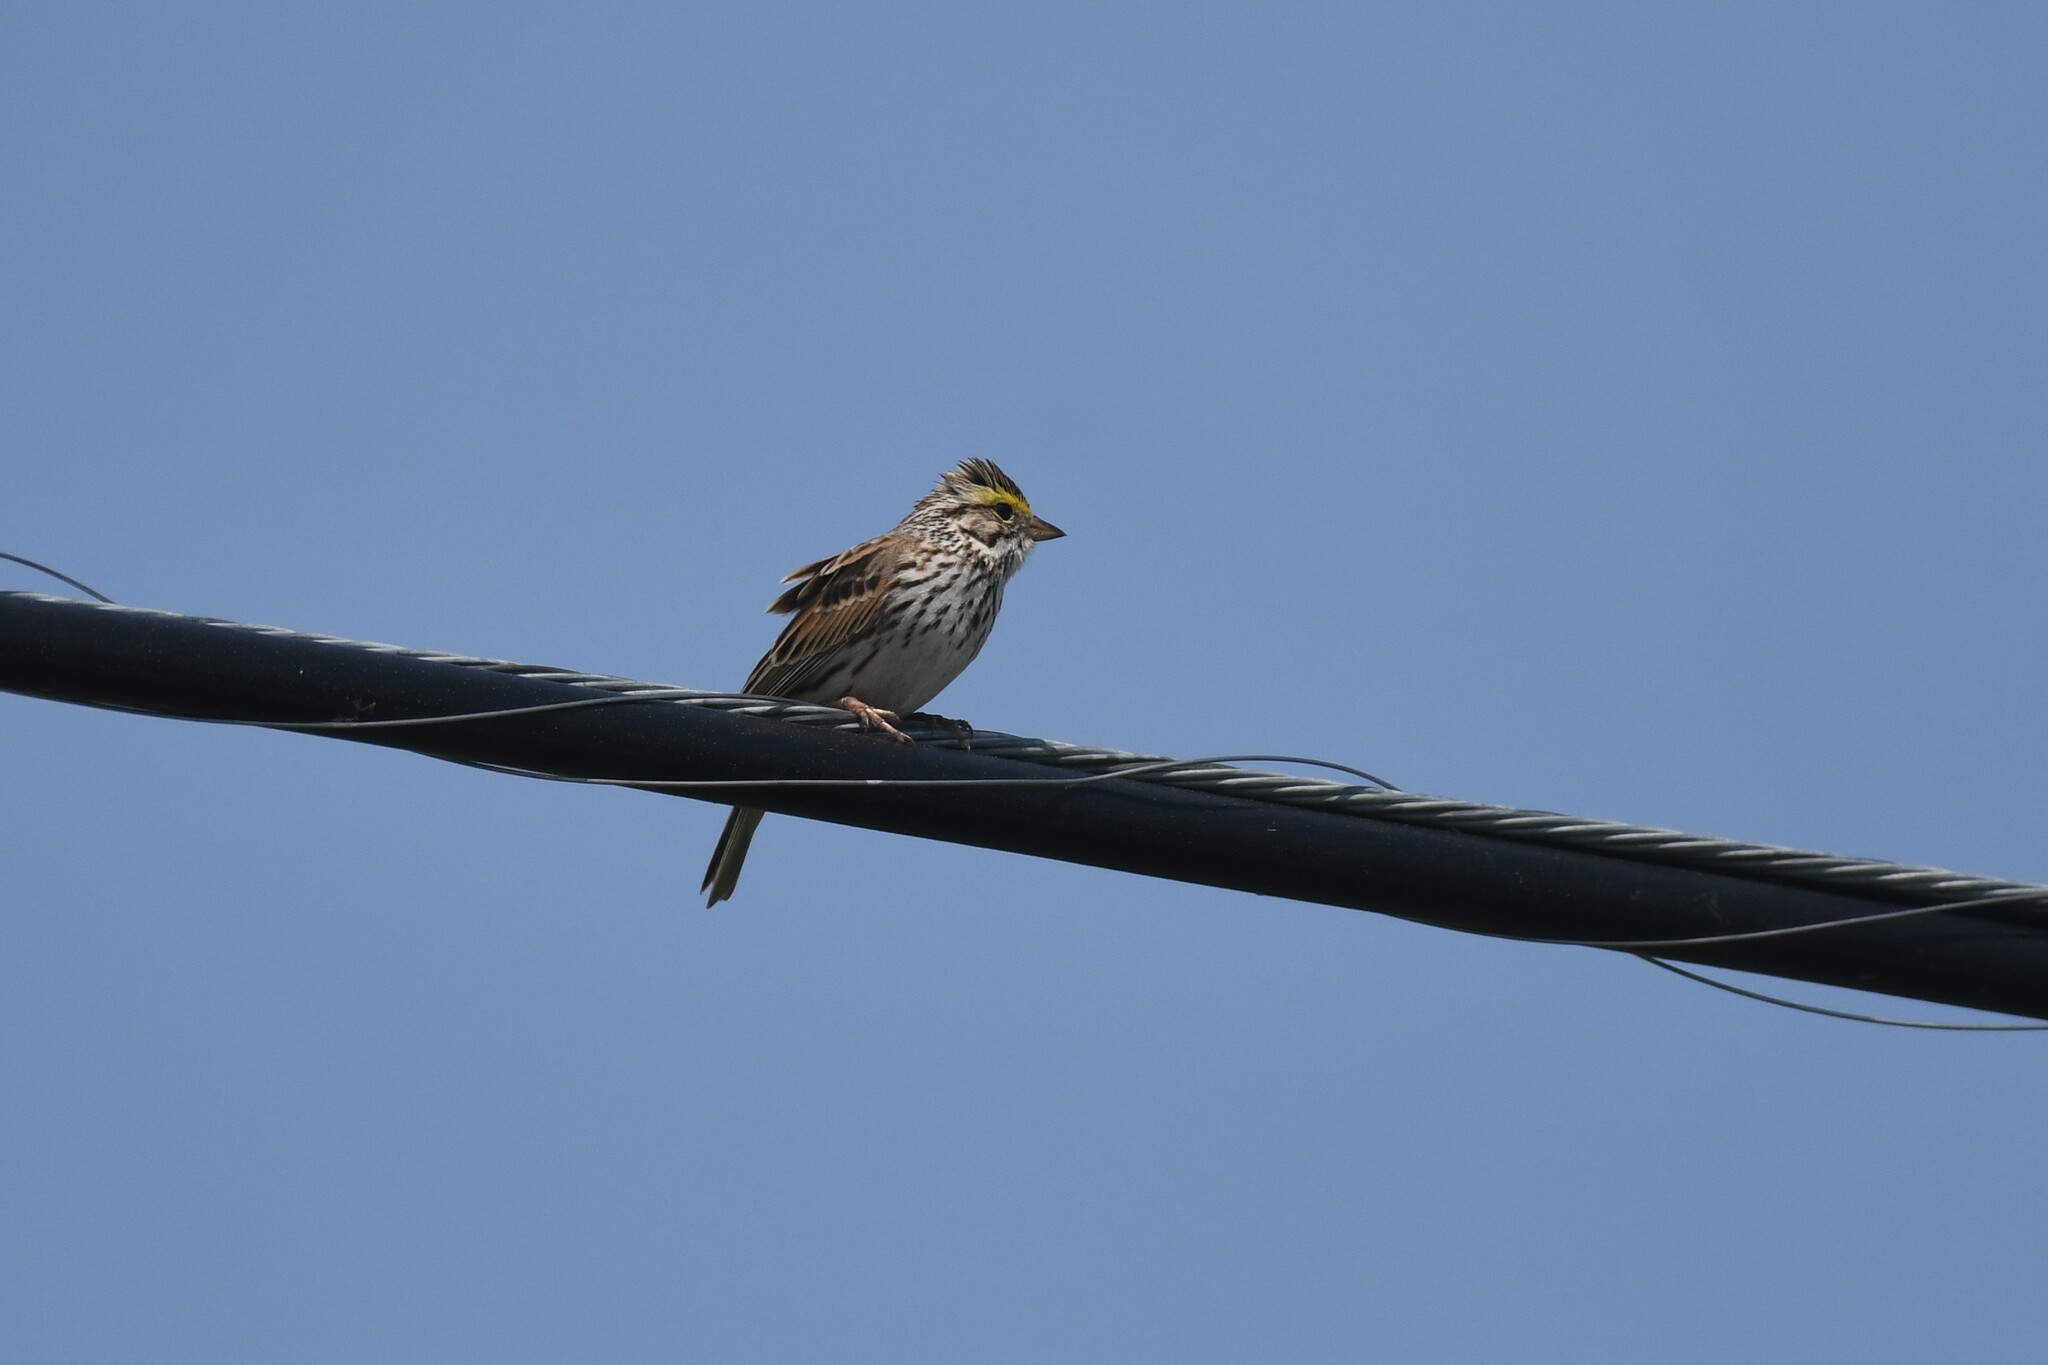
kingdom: Animalia
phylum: Chordata
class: Aves
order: Passeriformes
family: Passerellidae
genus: Passerculus
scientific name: Passerculus sandwichensis
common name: Savannah sparrow
